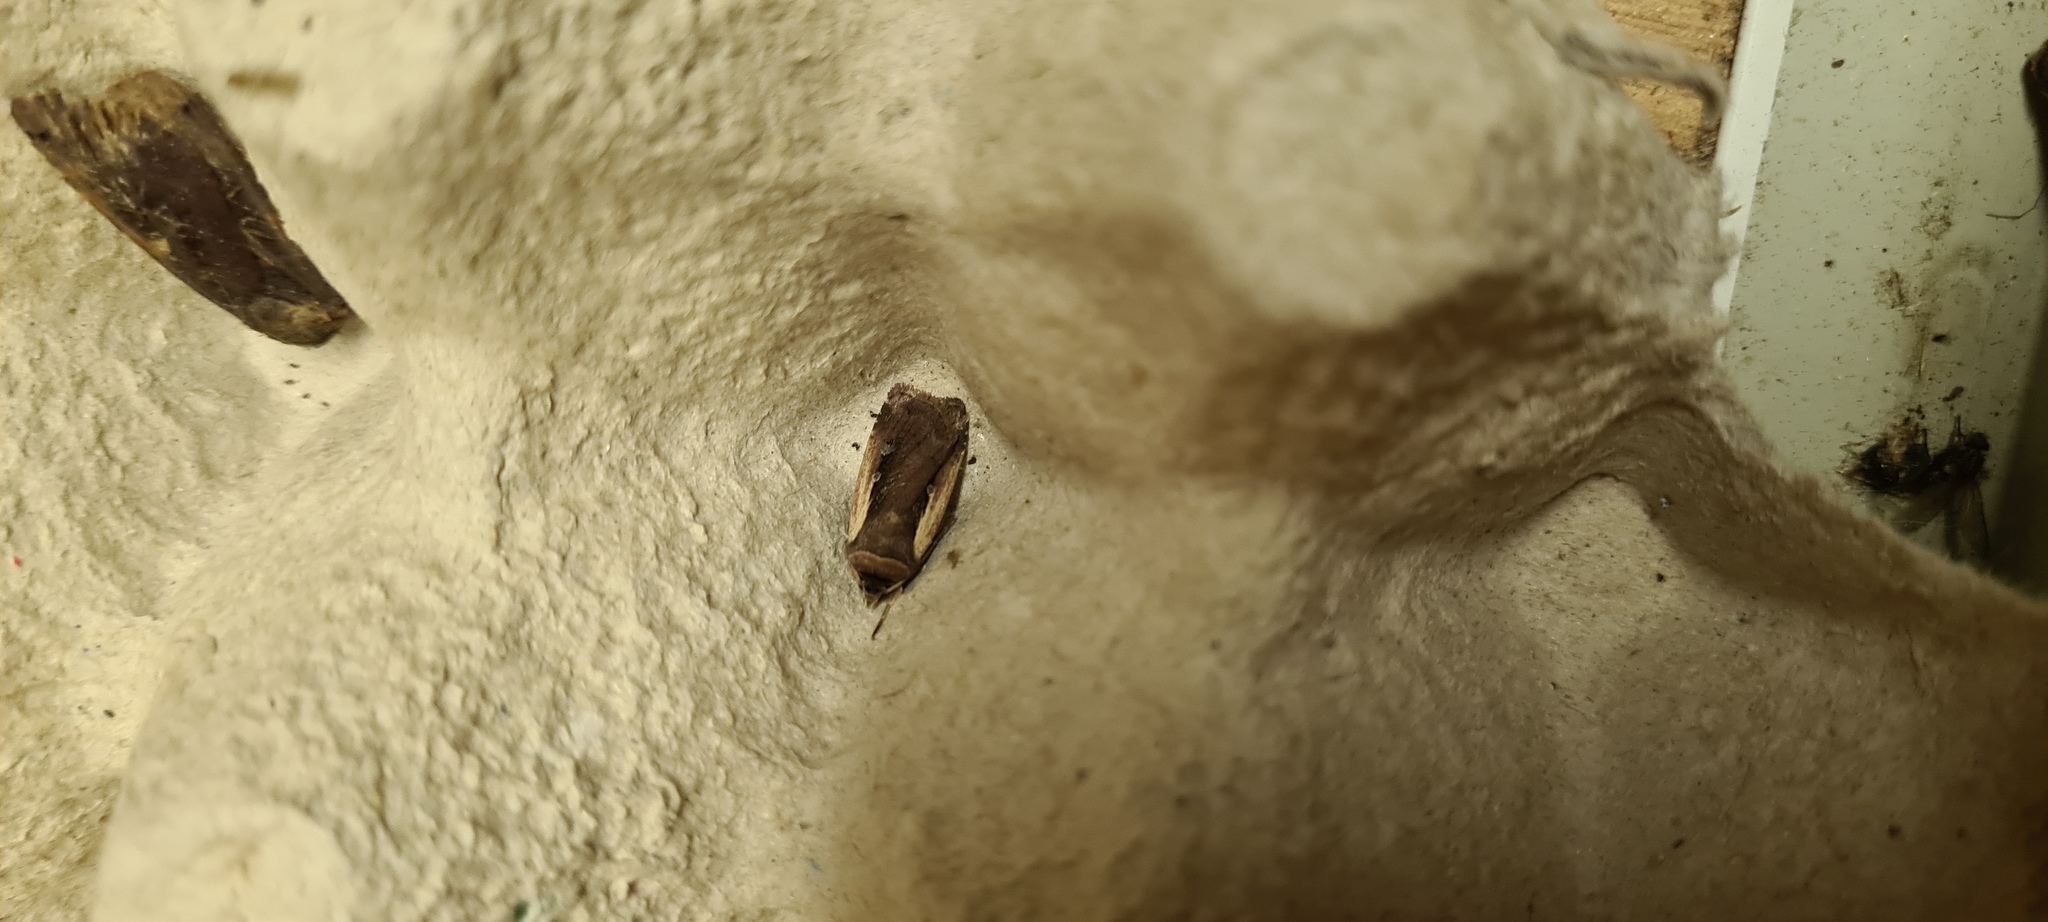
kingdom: Animalia
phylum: Arthropoda
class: Insecta
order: Lepidoptera
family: Noctuidae
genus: Ochropleura
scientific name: Ochropleura plecta
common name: Flame shoulder
